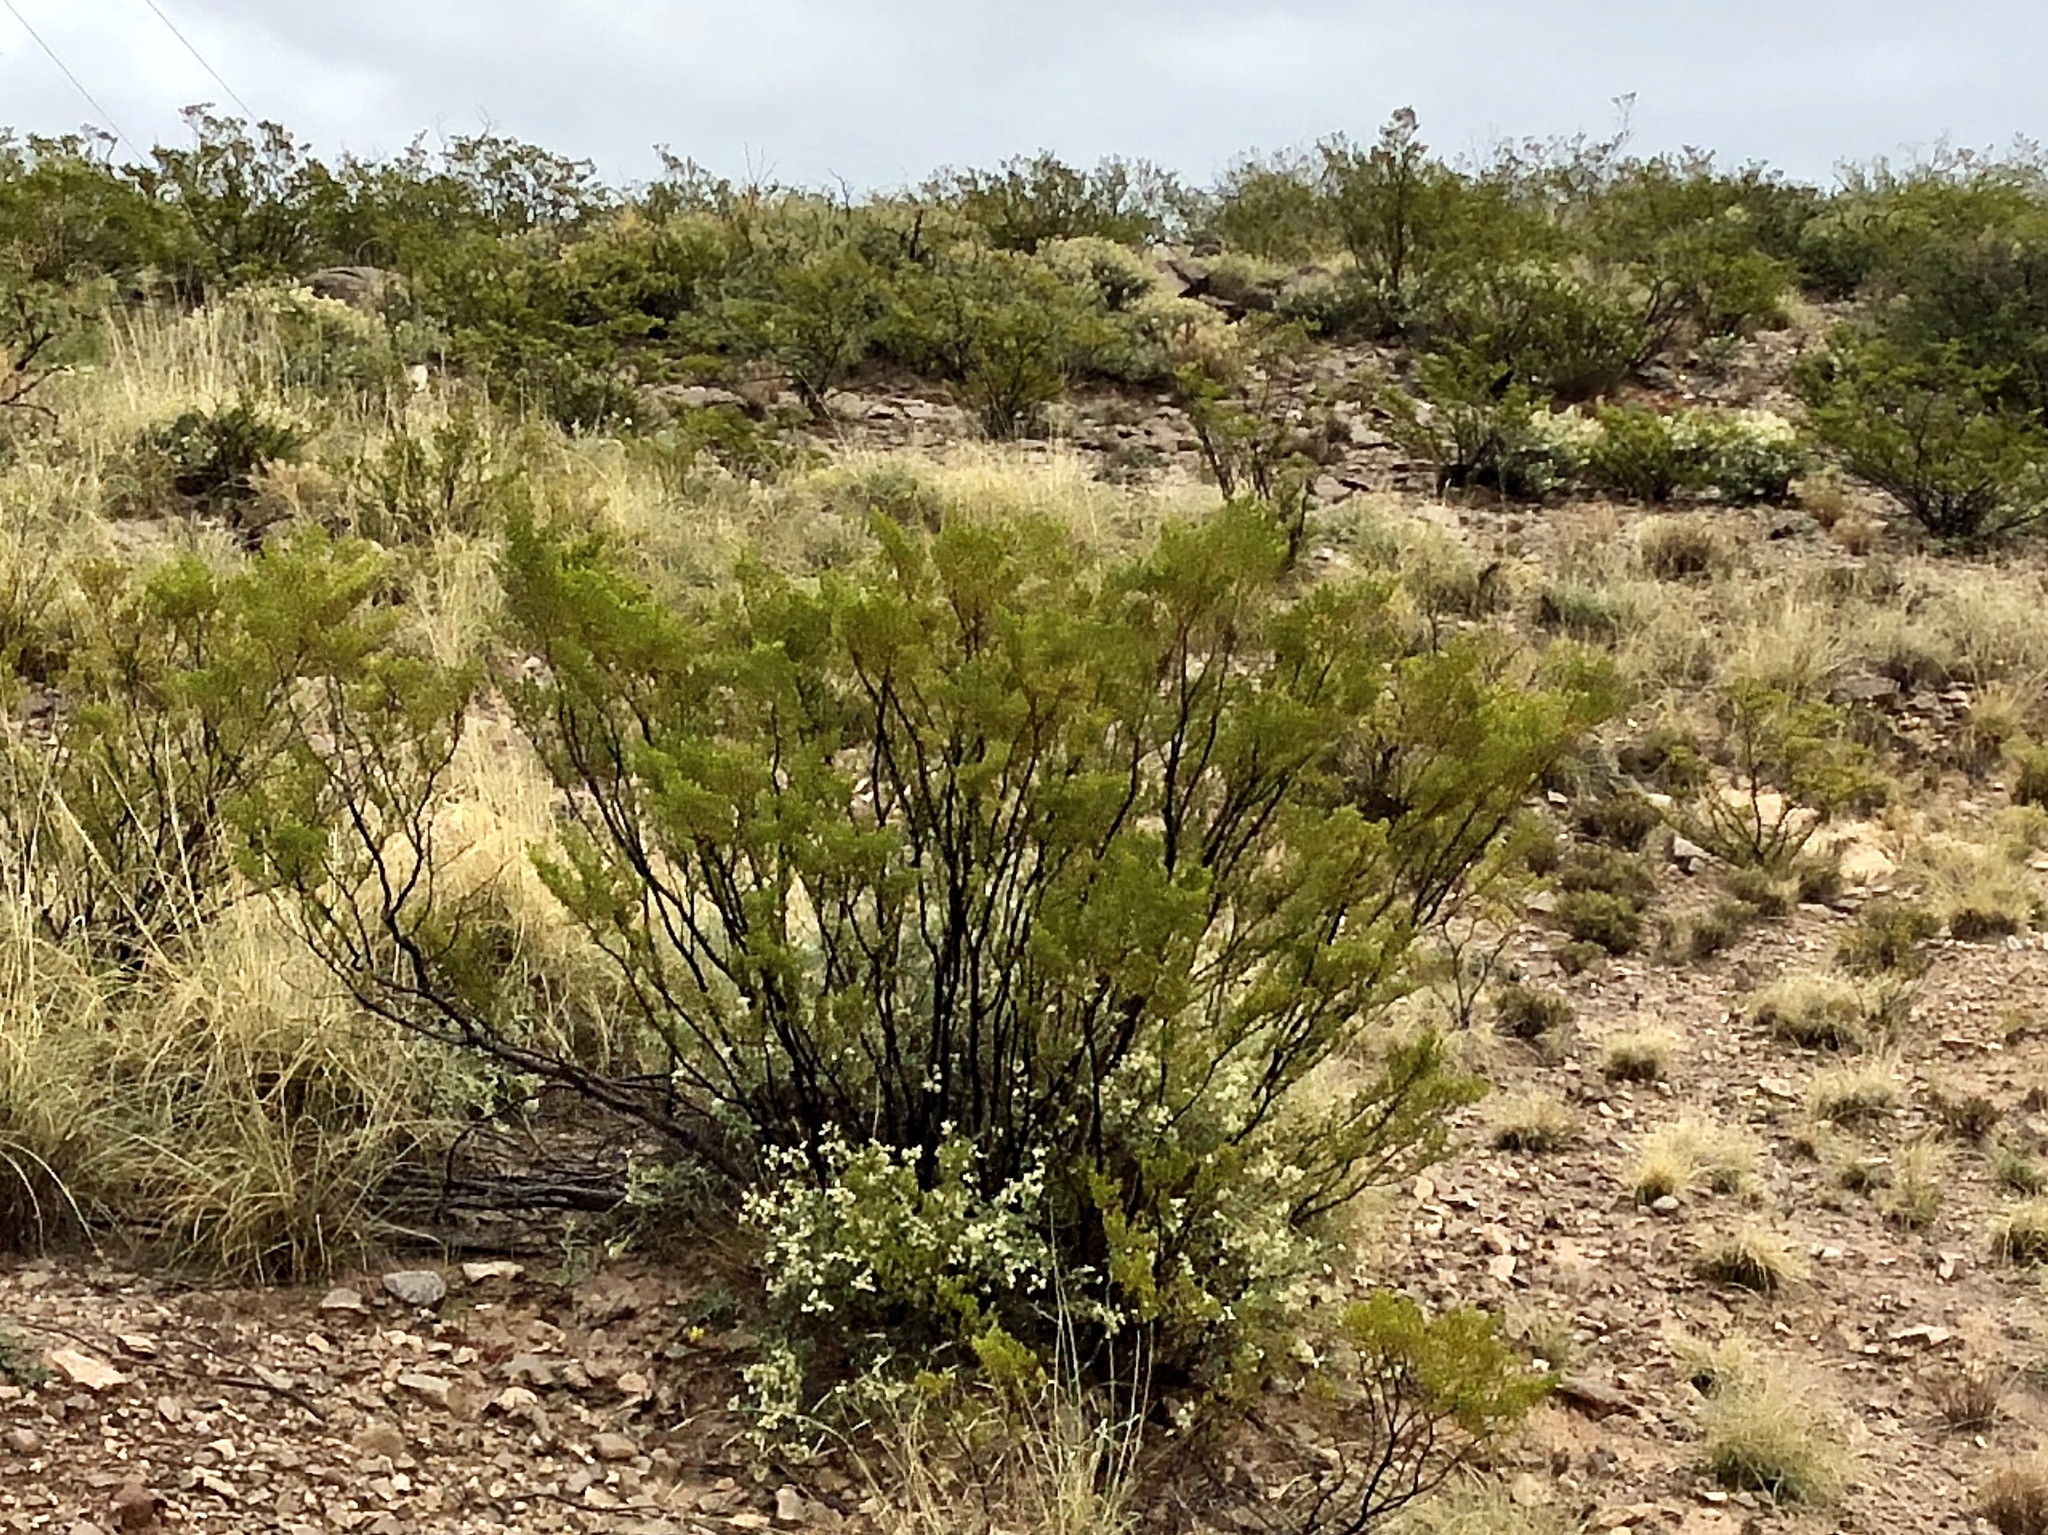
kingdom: Plantae
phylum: Tracheophyta
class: Magnoliopsida
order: Zygophyllales
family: Zygophyllaceae
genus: Larrea
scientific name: Larrea tridentata
